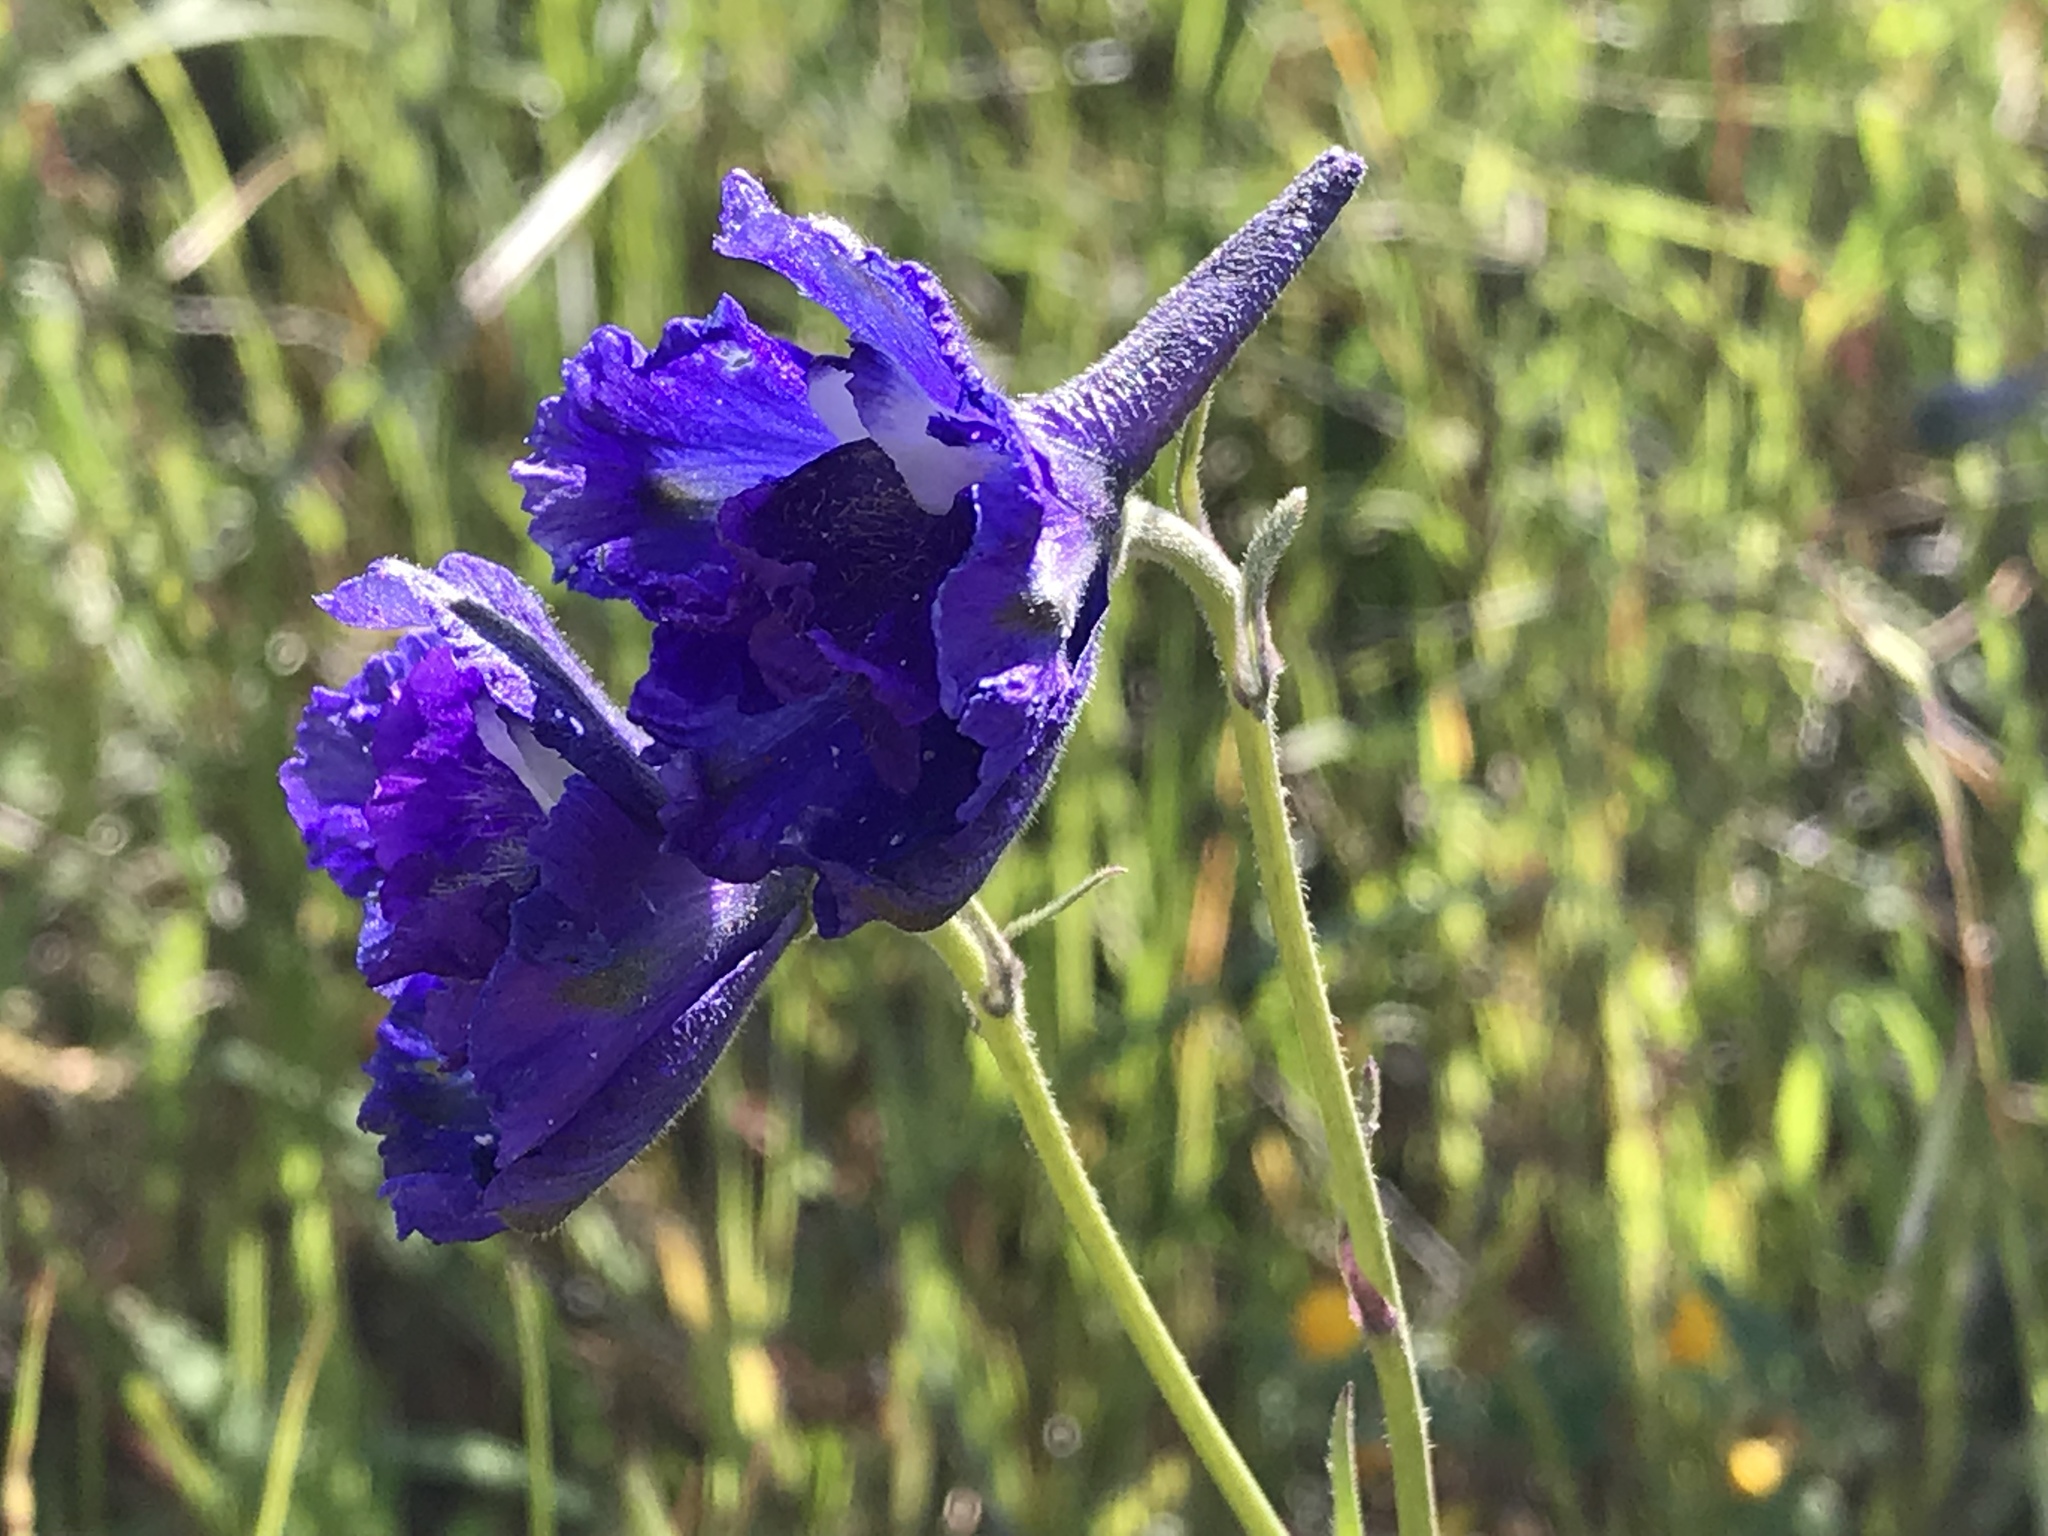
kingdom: Plantae
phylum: Tracheophyta
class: Magnoliopsida
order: Ranunculales
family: Ranunculaceae
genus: Delphinium
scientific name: Delphinium variegatum
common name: Royal larkspur
